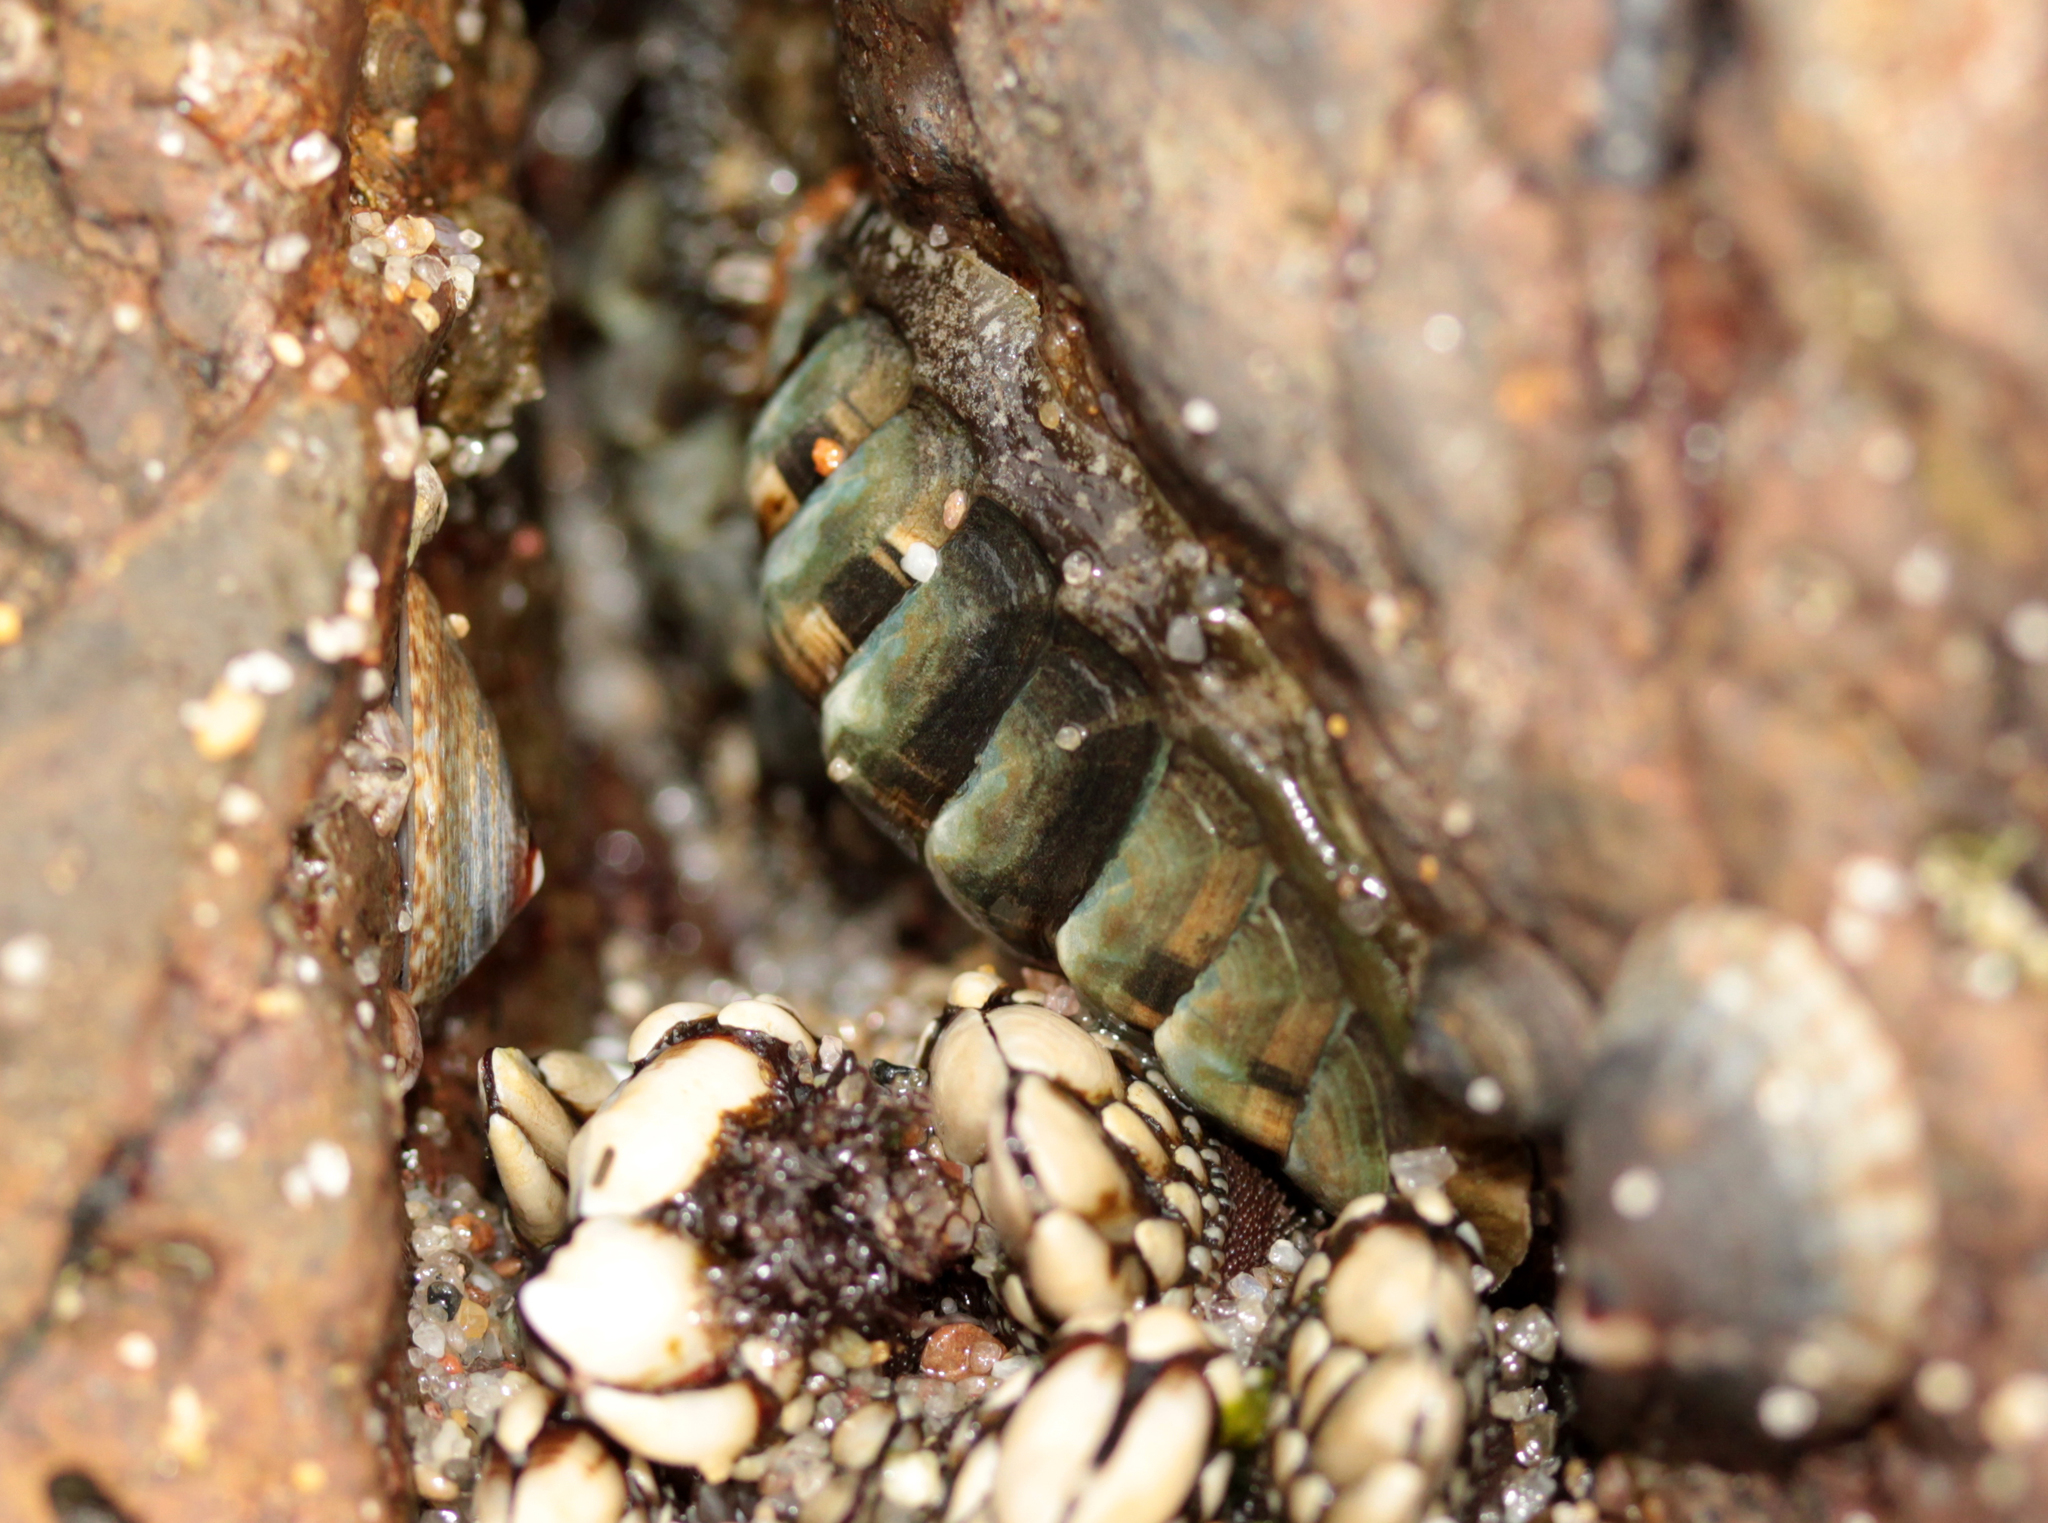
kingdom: Animalia
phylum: Mollusca
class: Polyplacophora
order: Chitonida
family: Tonicellidae
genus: Cyanoplax
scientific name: Cyanoplax hartwegii
